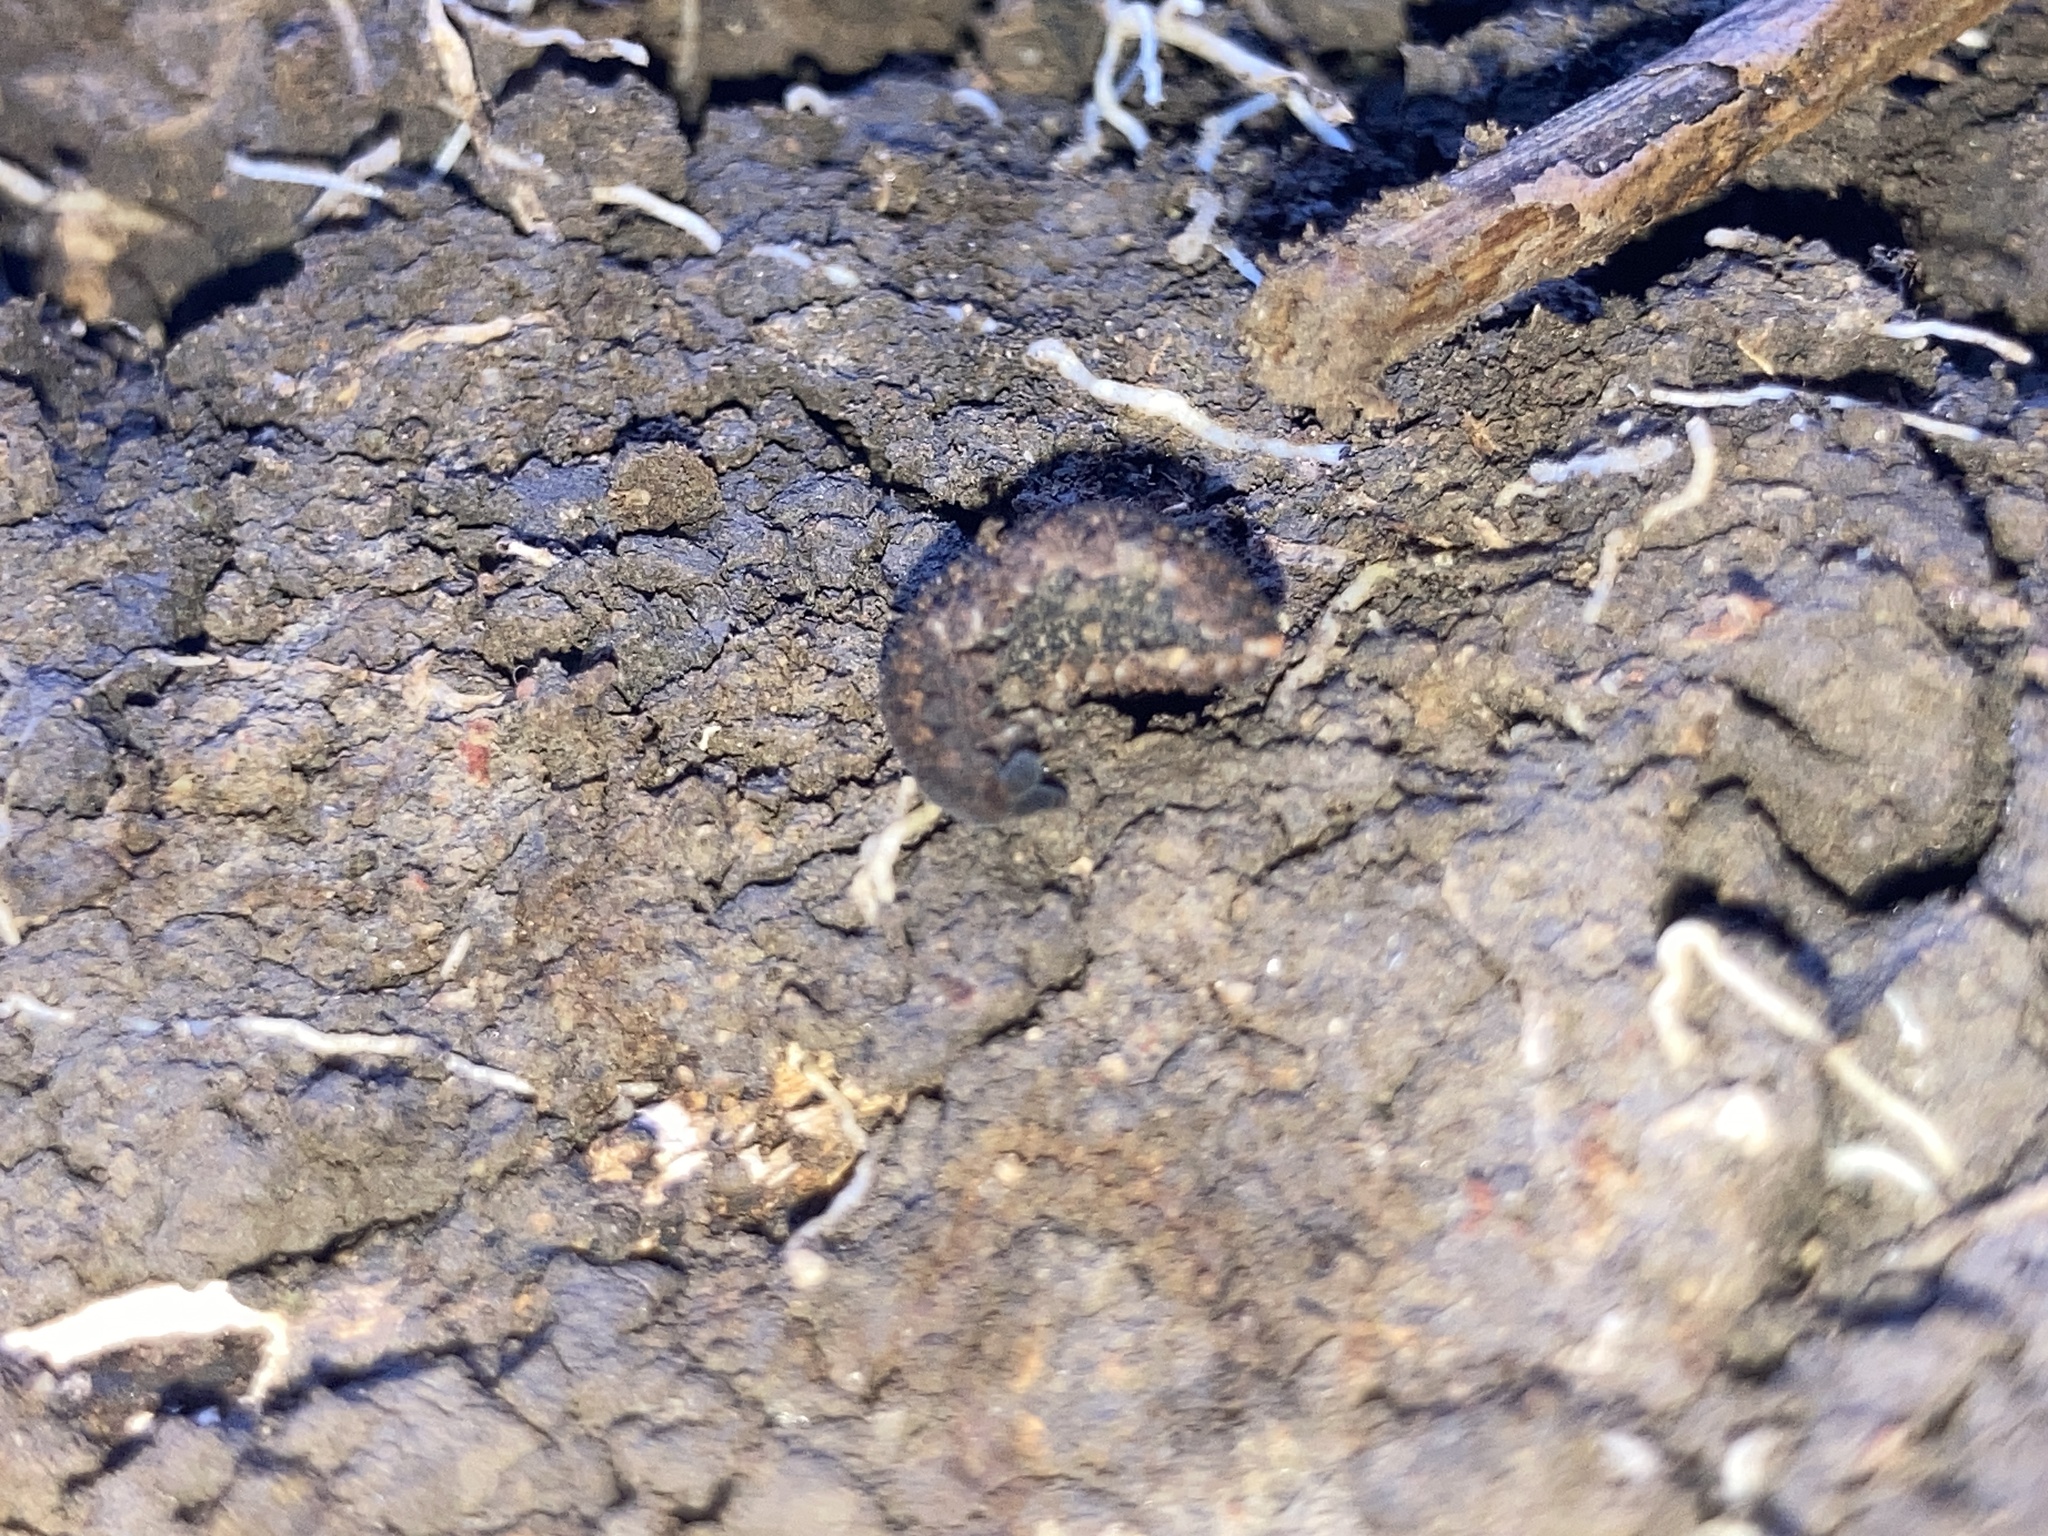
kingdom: Animalia
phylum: Onychophora
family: Peripatopsidae
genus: Anoplokaros
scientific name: Anoplokaros keerensis
